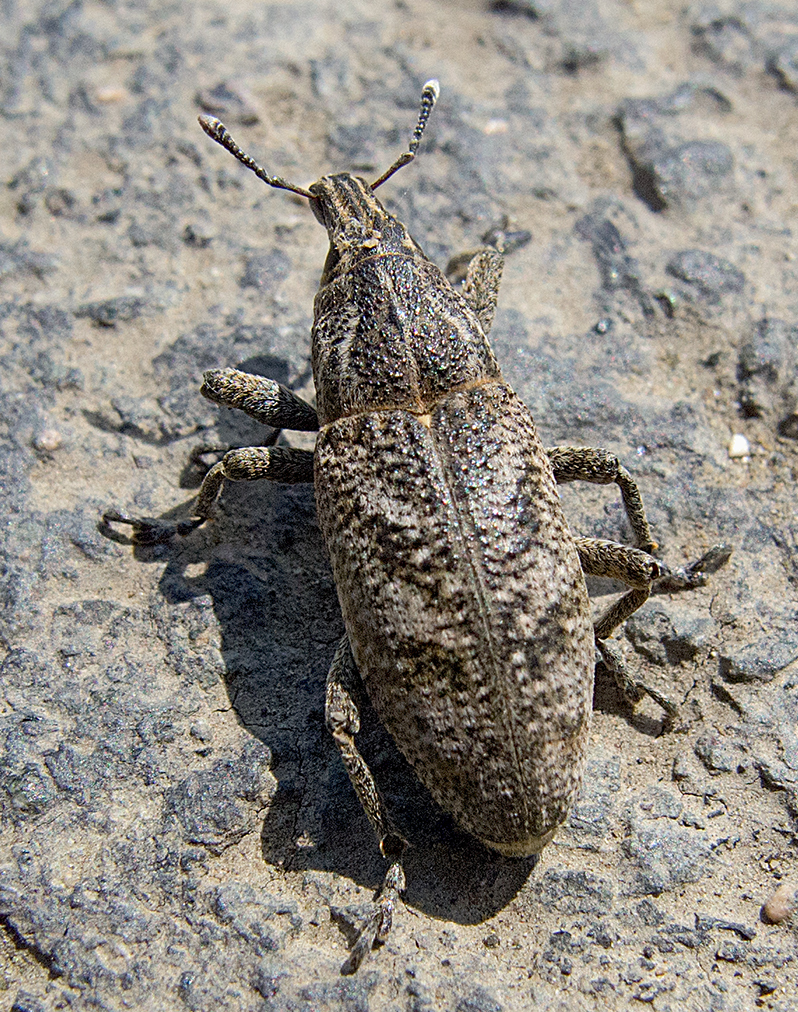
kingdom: Animalia
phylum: Arthropoda
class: Insecta
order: Coleoptera
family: Curculionidae
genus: Cleonis
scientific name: Cleonis pigra
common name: Large thistle weevil
